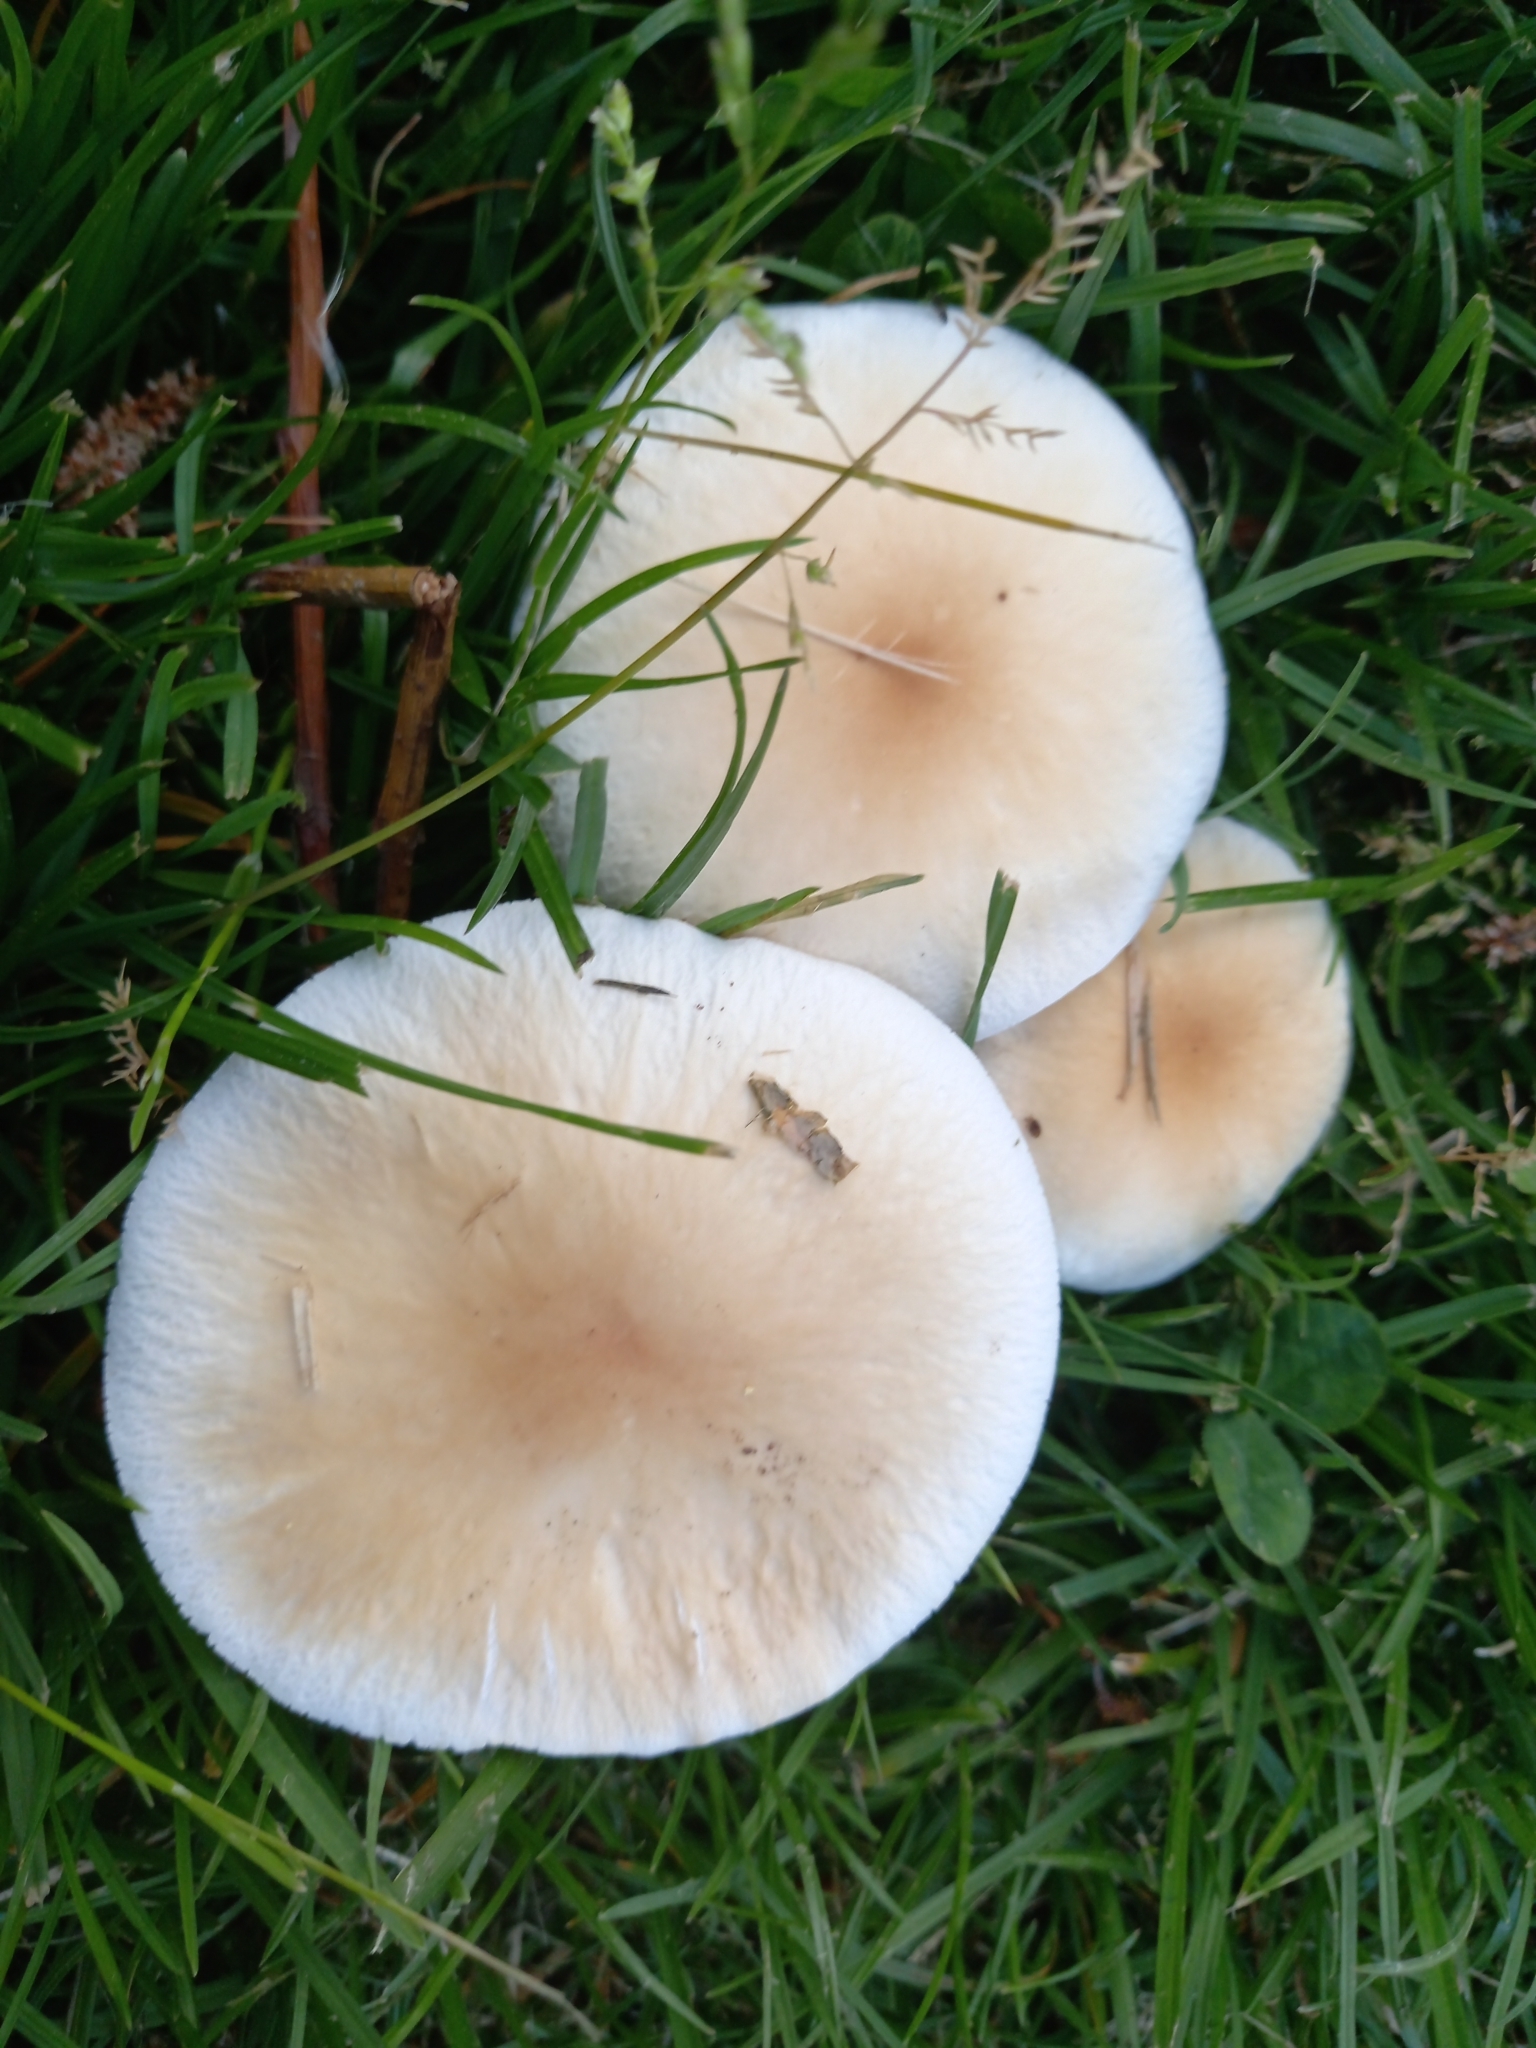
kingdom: Fungi
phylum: Basidiomycota
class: Agaricomycetes
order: Agaricales
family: Tubariaceae
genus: Cyclocybe
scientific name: Cyclocybe cylindracea
